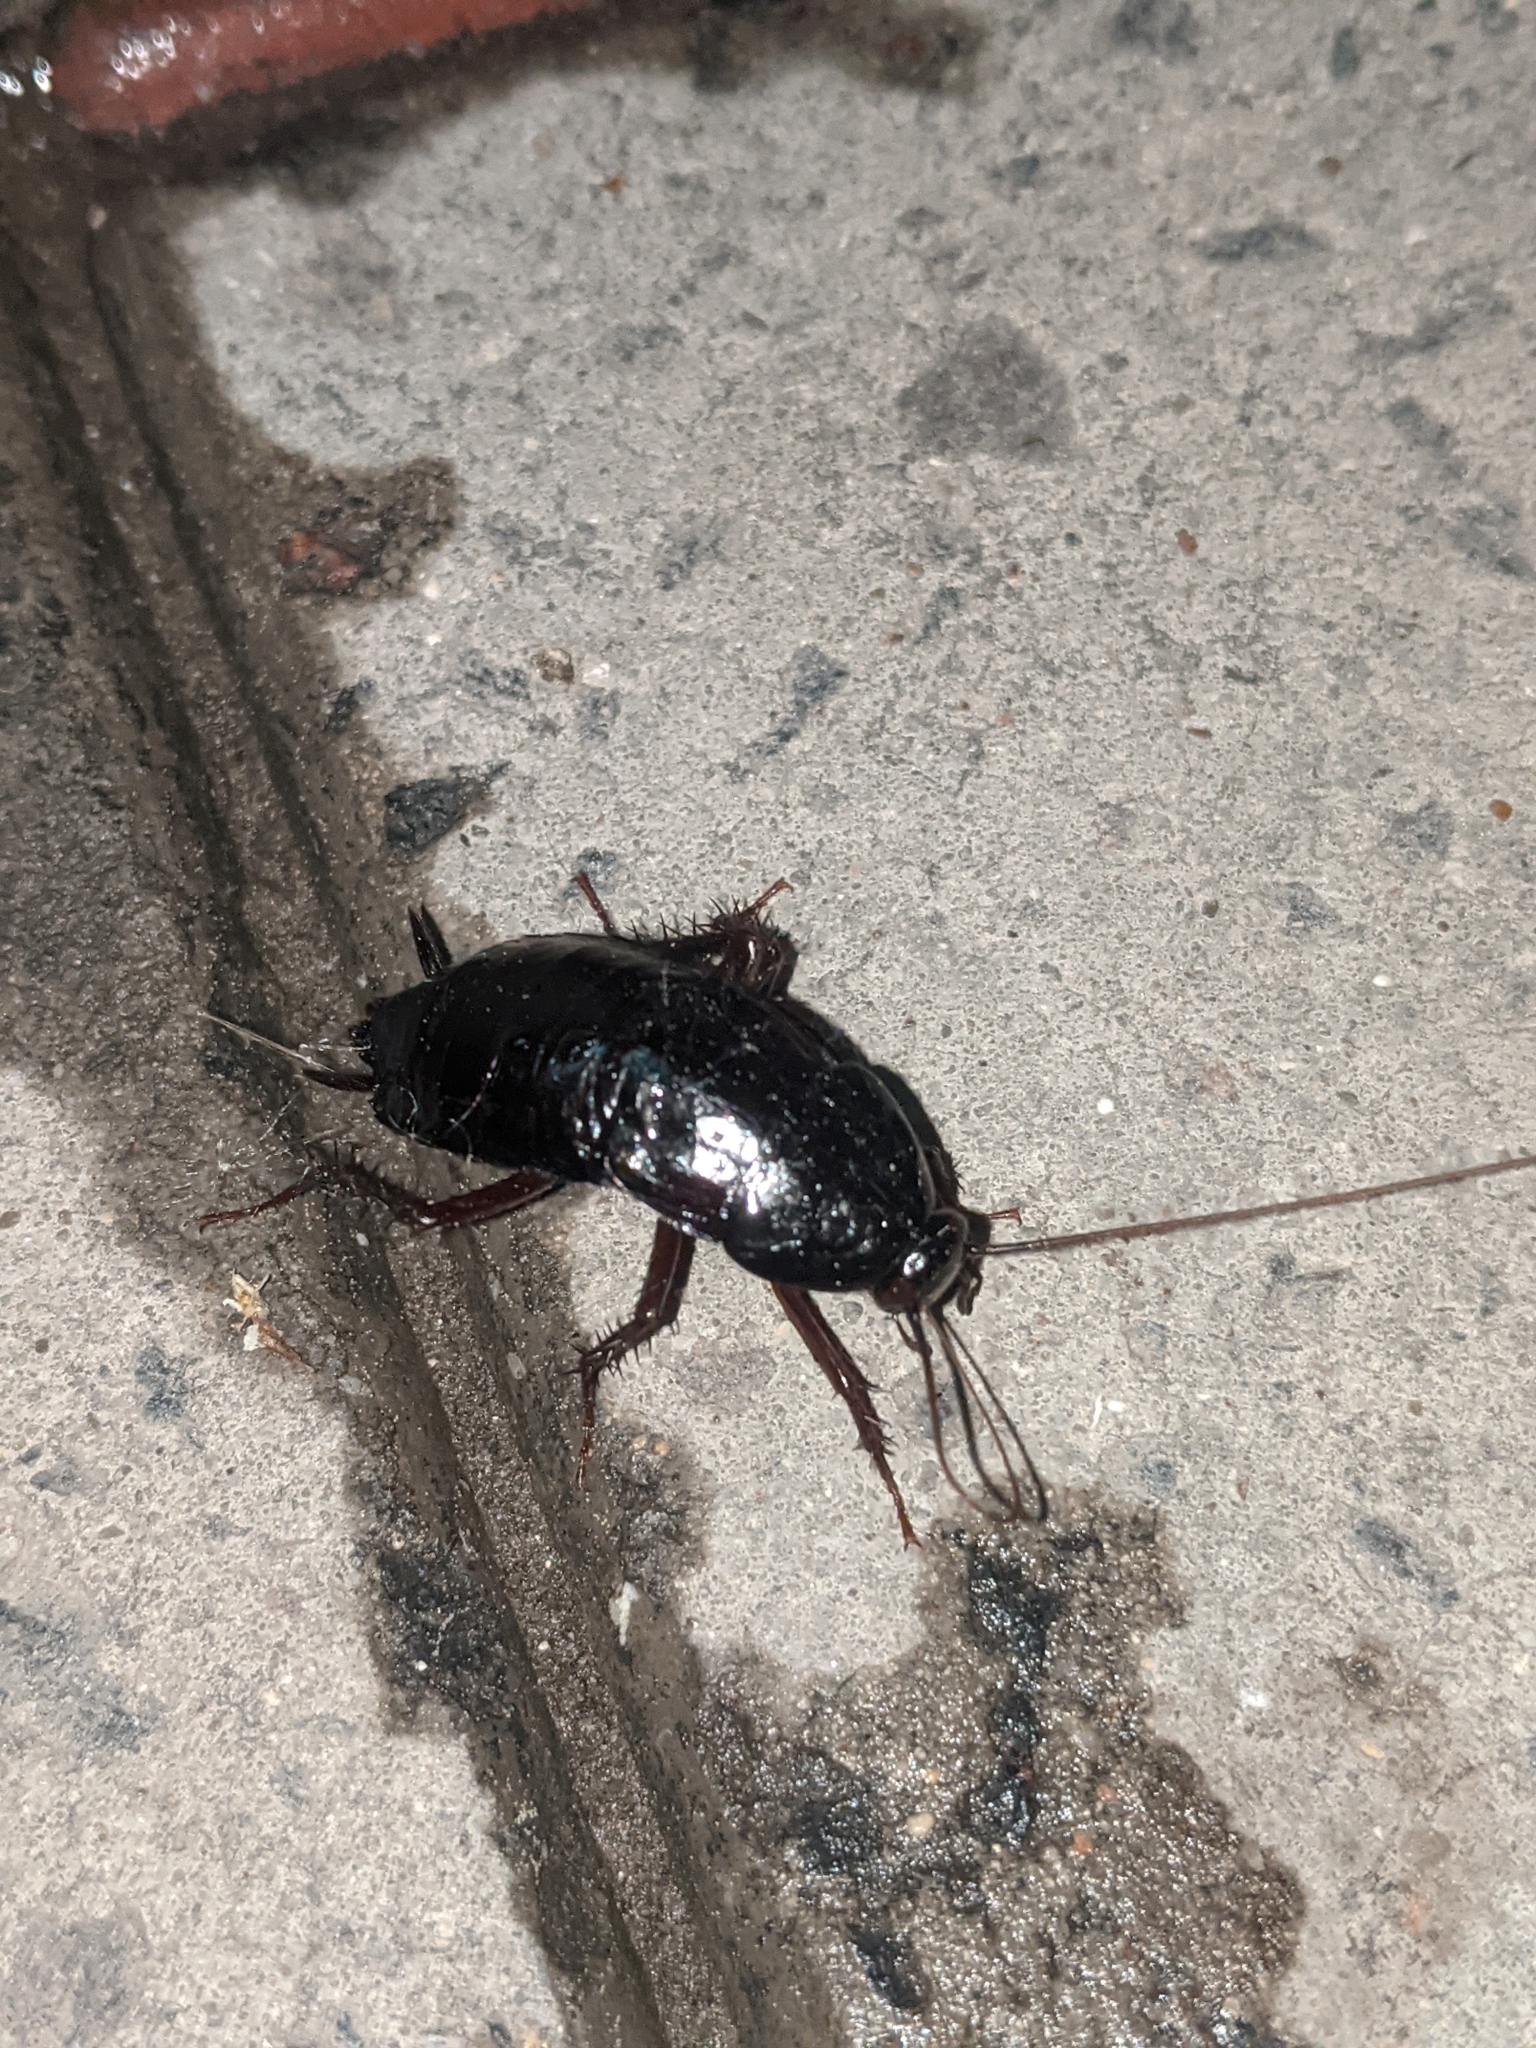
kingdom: Animalia
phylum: Arthropoda
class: Insecta
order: Blattodea
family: Blattidae
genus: Blatta
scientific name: Blatta orientalis
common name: Oriental cockroach
